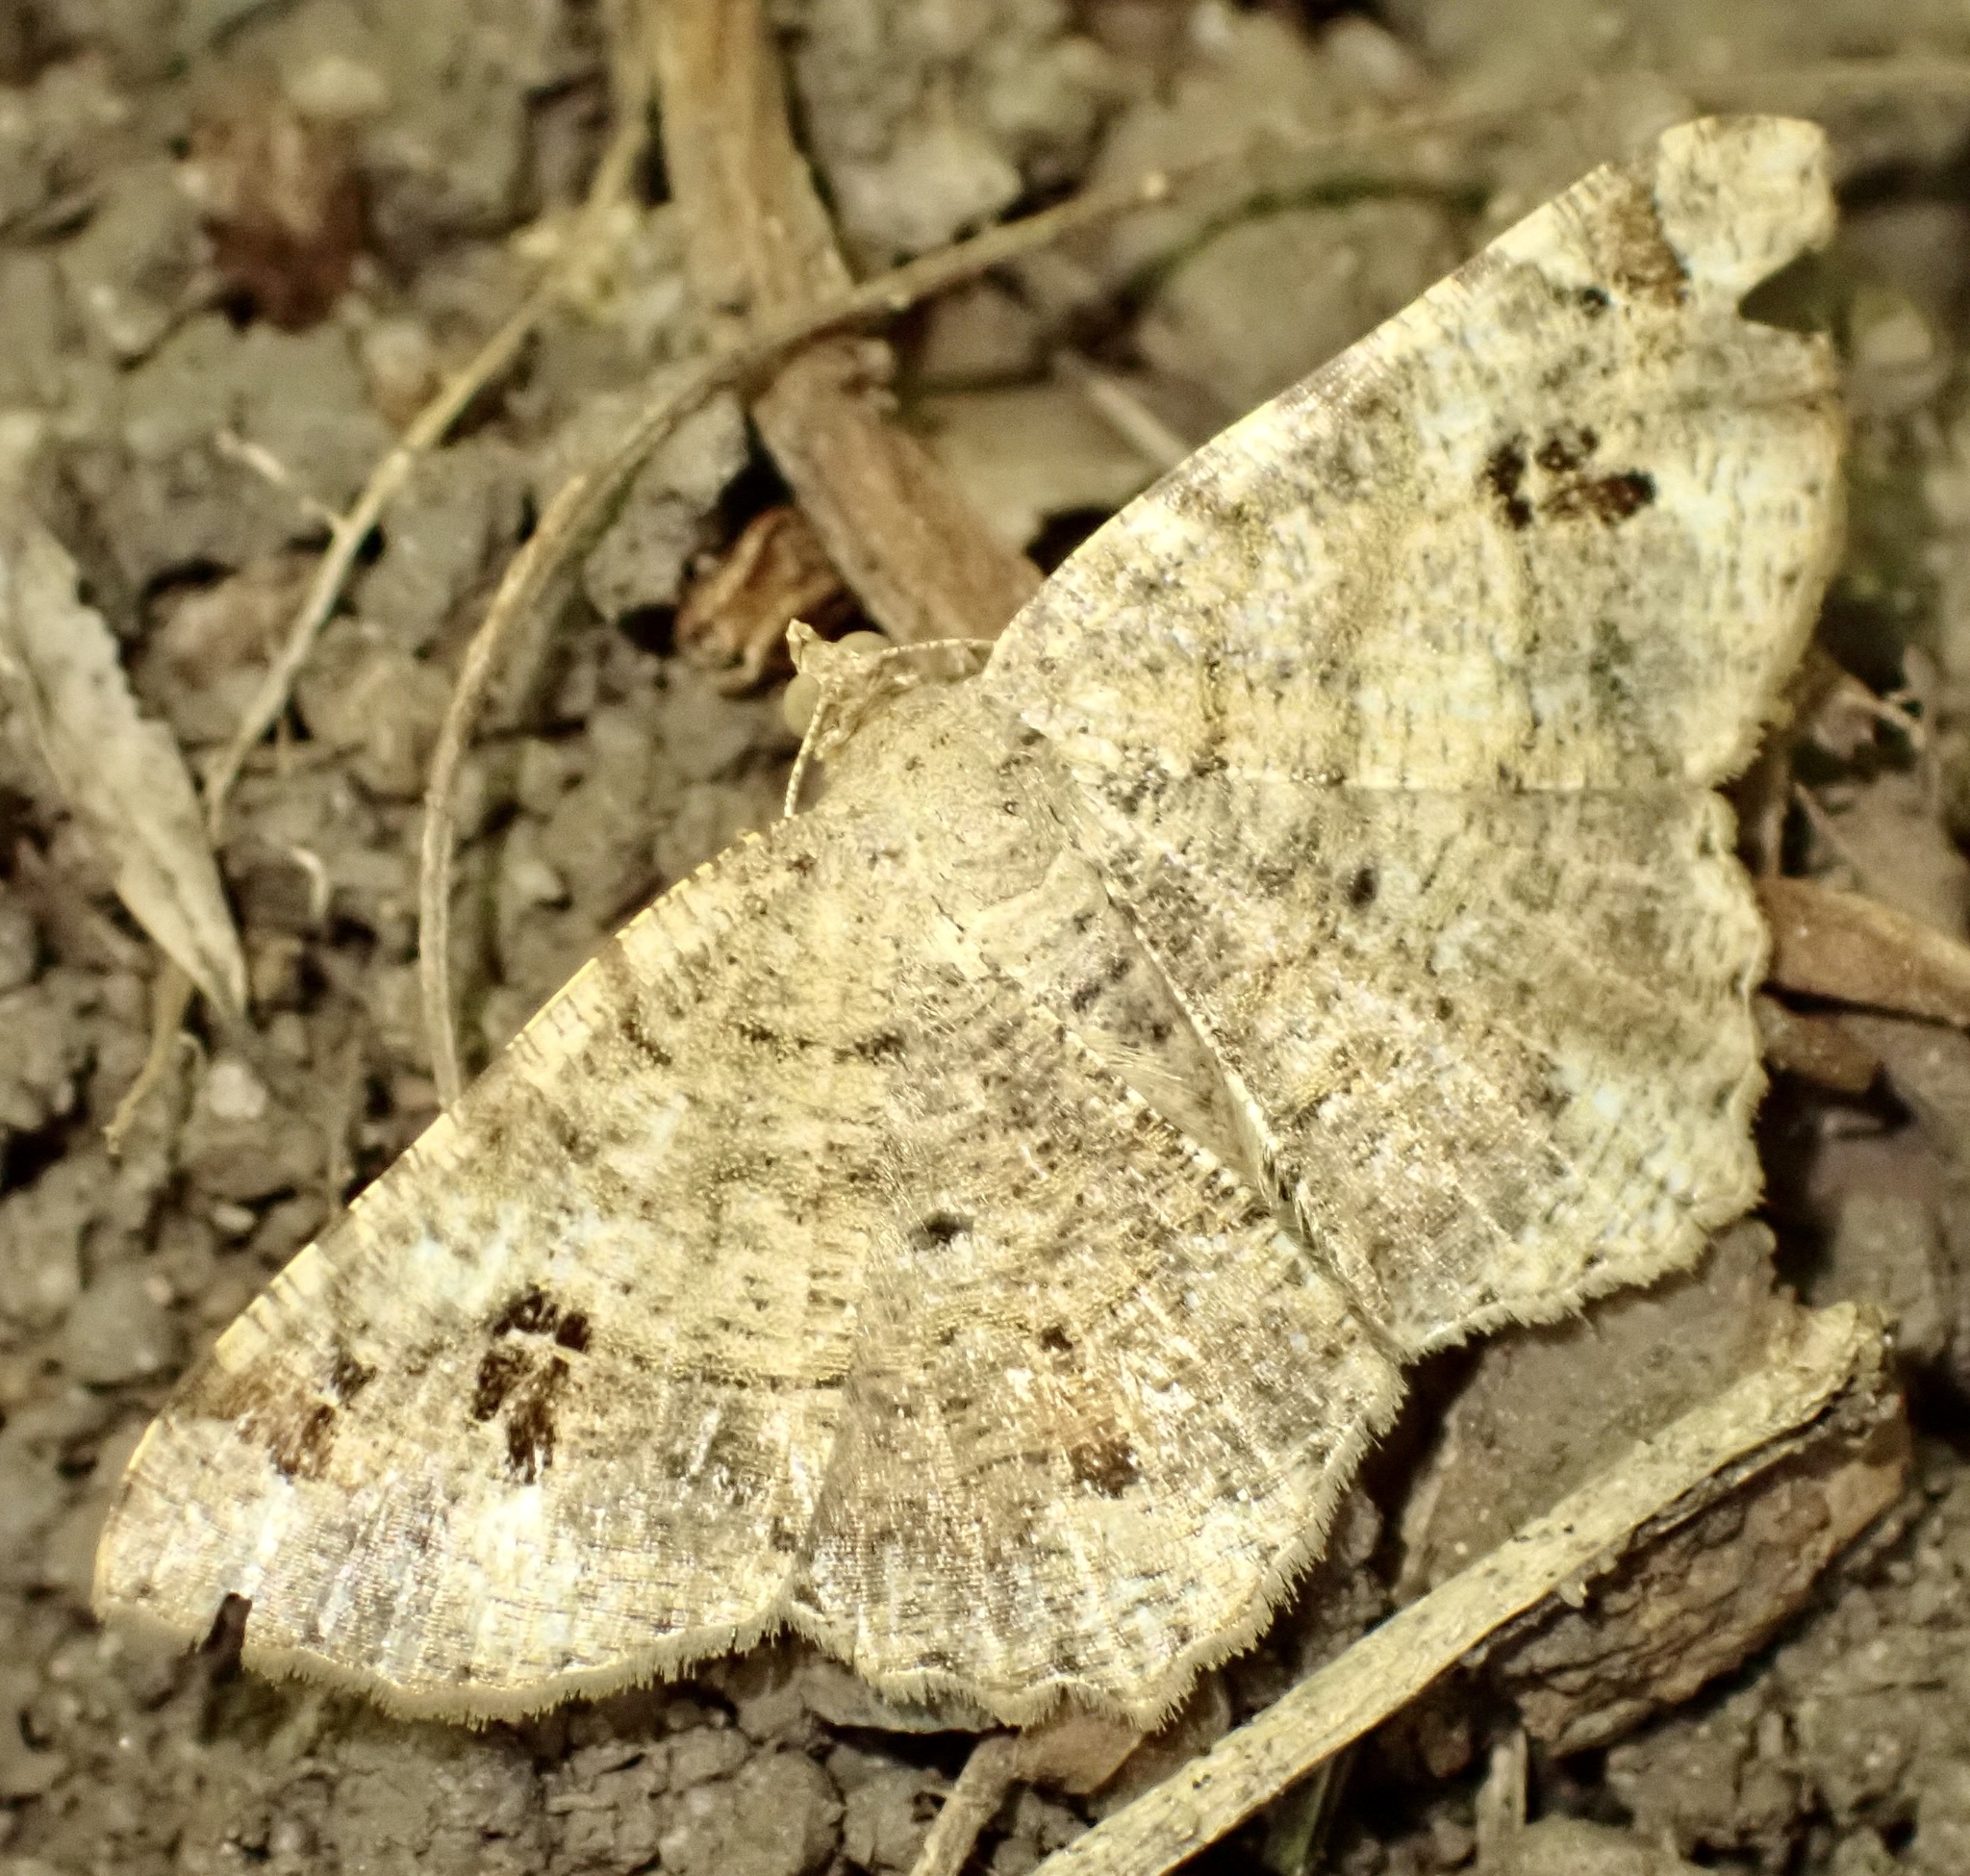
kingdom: Animalia
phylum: Arthropoda
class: Insecta
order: Lepidoptera
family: Geometridae
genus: Chiasmia
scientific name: Chiasmia deceptrix
